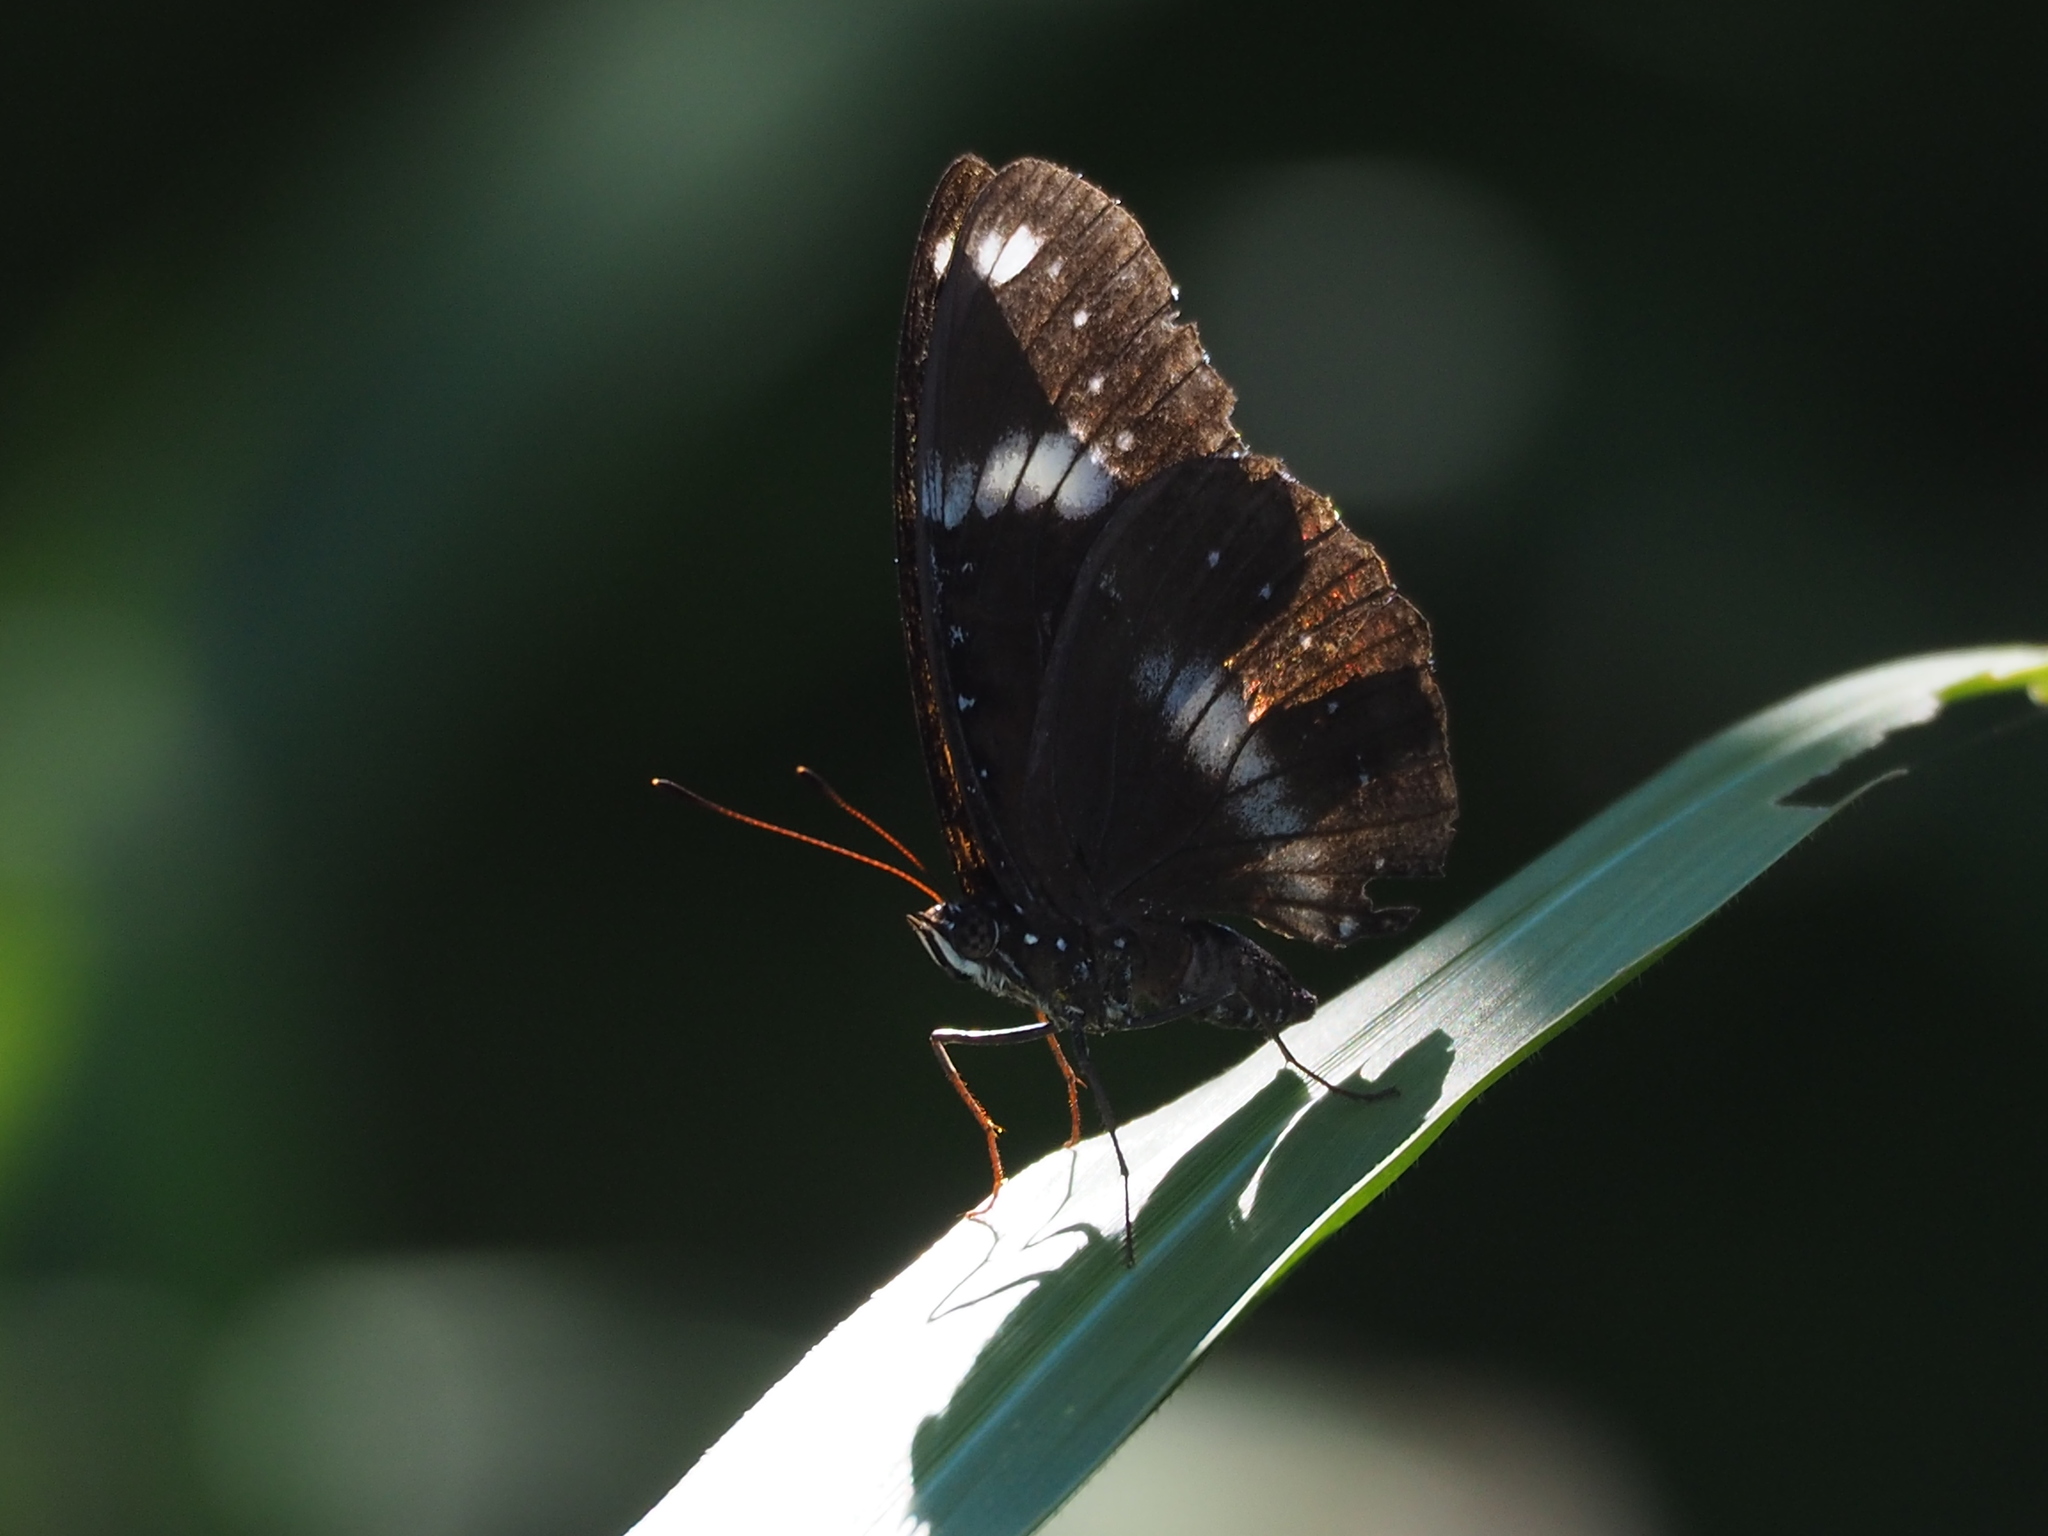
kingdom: Animalia
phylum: Arthropoda
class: Insecta
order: Lepidoptera
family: Nymphalidae
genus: Hypolimnas
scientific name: Hypolimnas bolina
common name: Great eggfly
